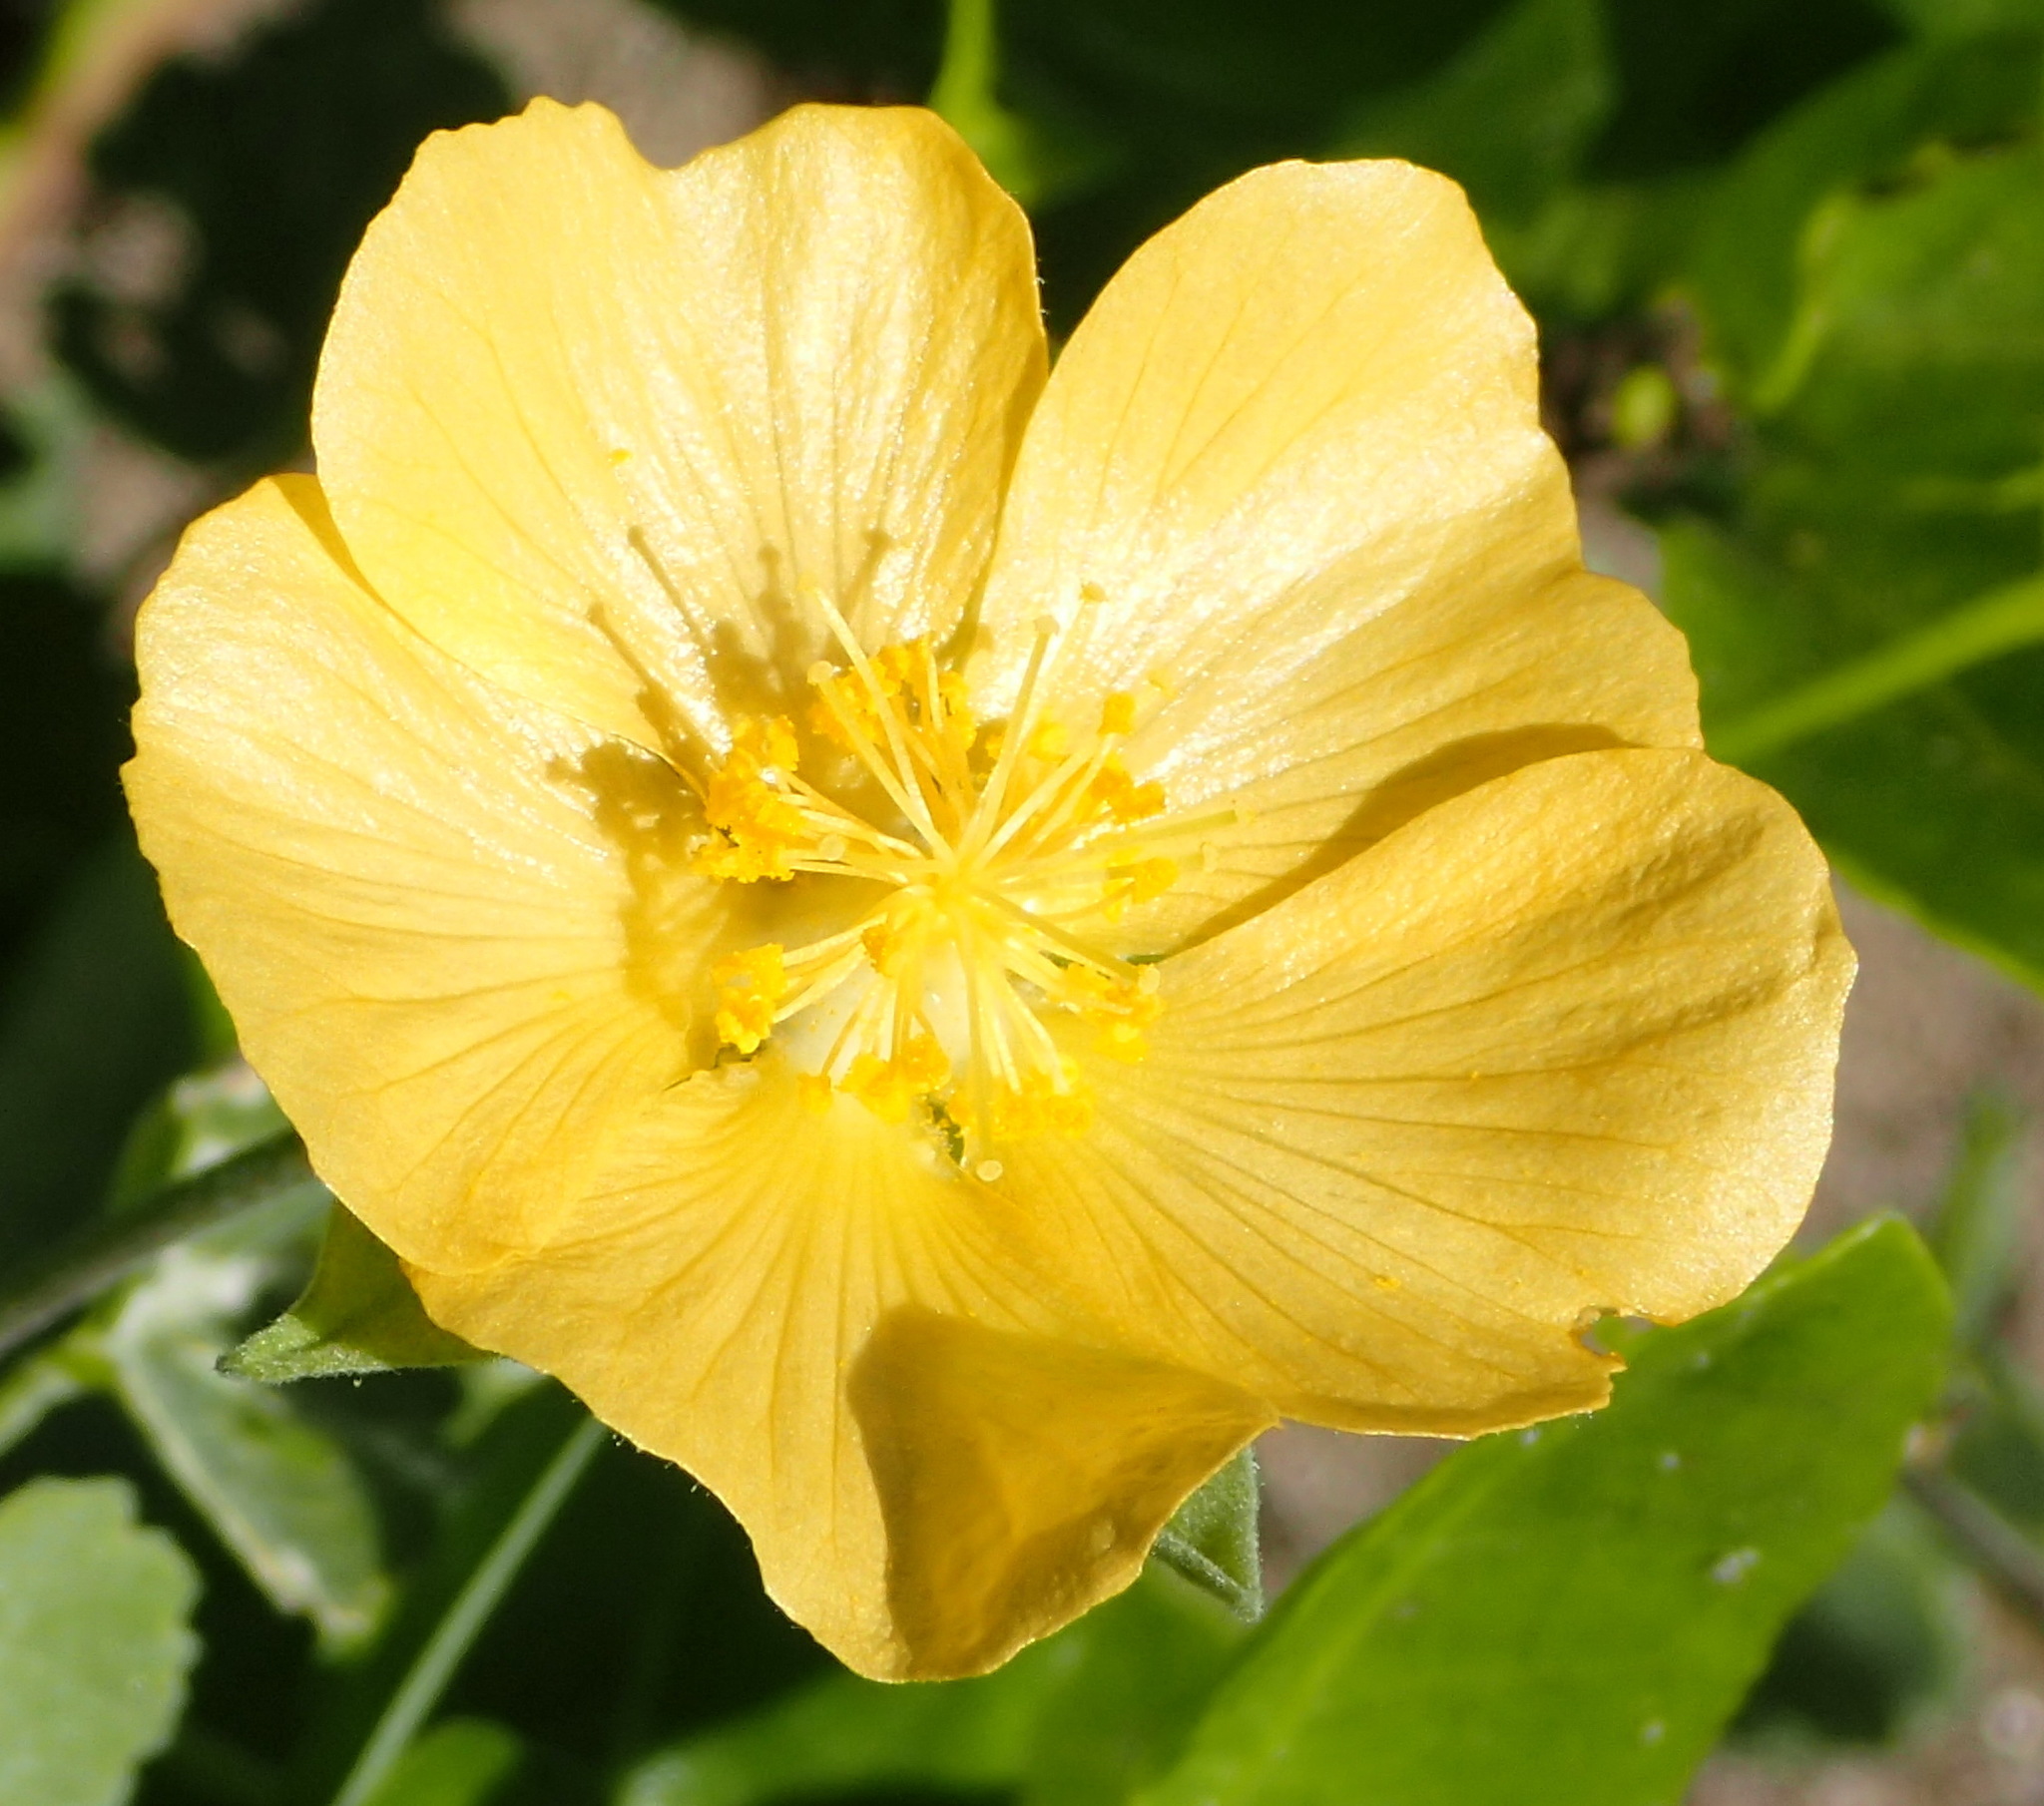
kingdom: Plantae
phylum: Tracheophyta
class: Magnoliopsida
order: Malvales
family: Malvaceae
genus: Abutilon
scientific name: Abutilon sonneratianum
